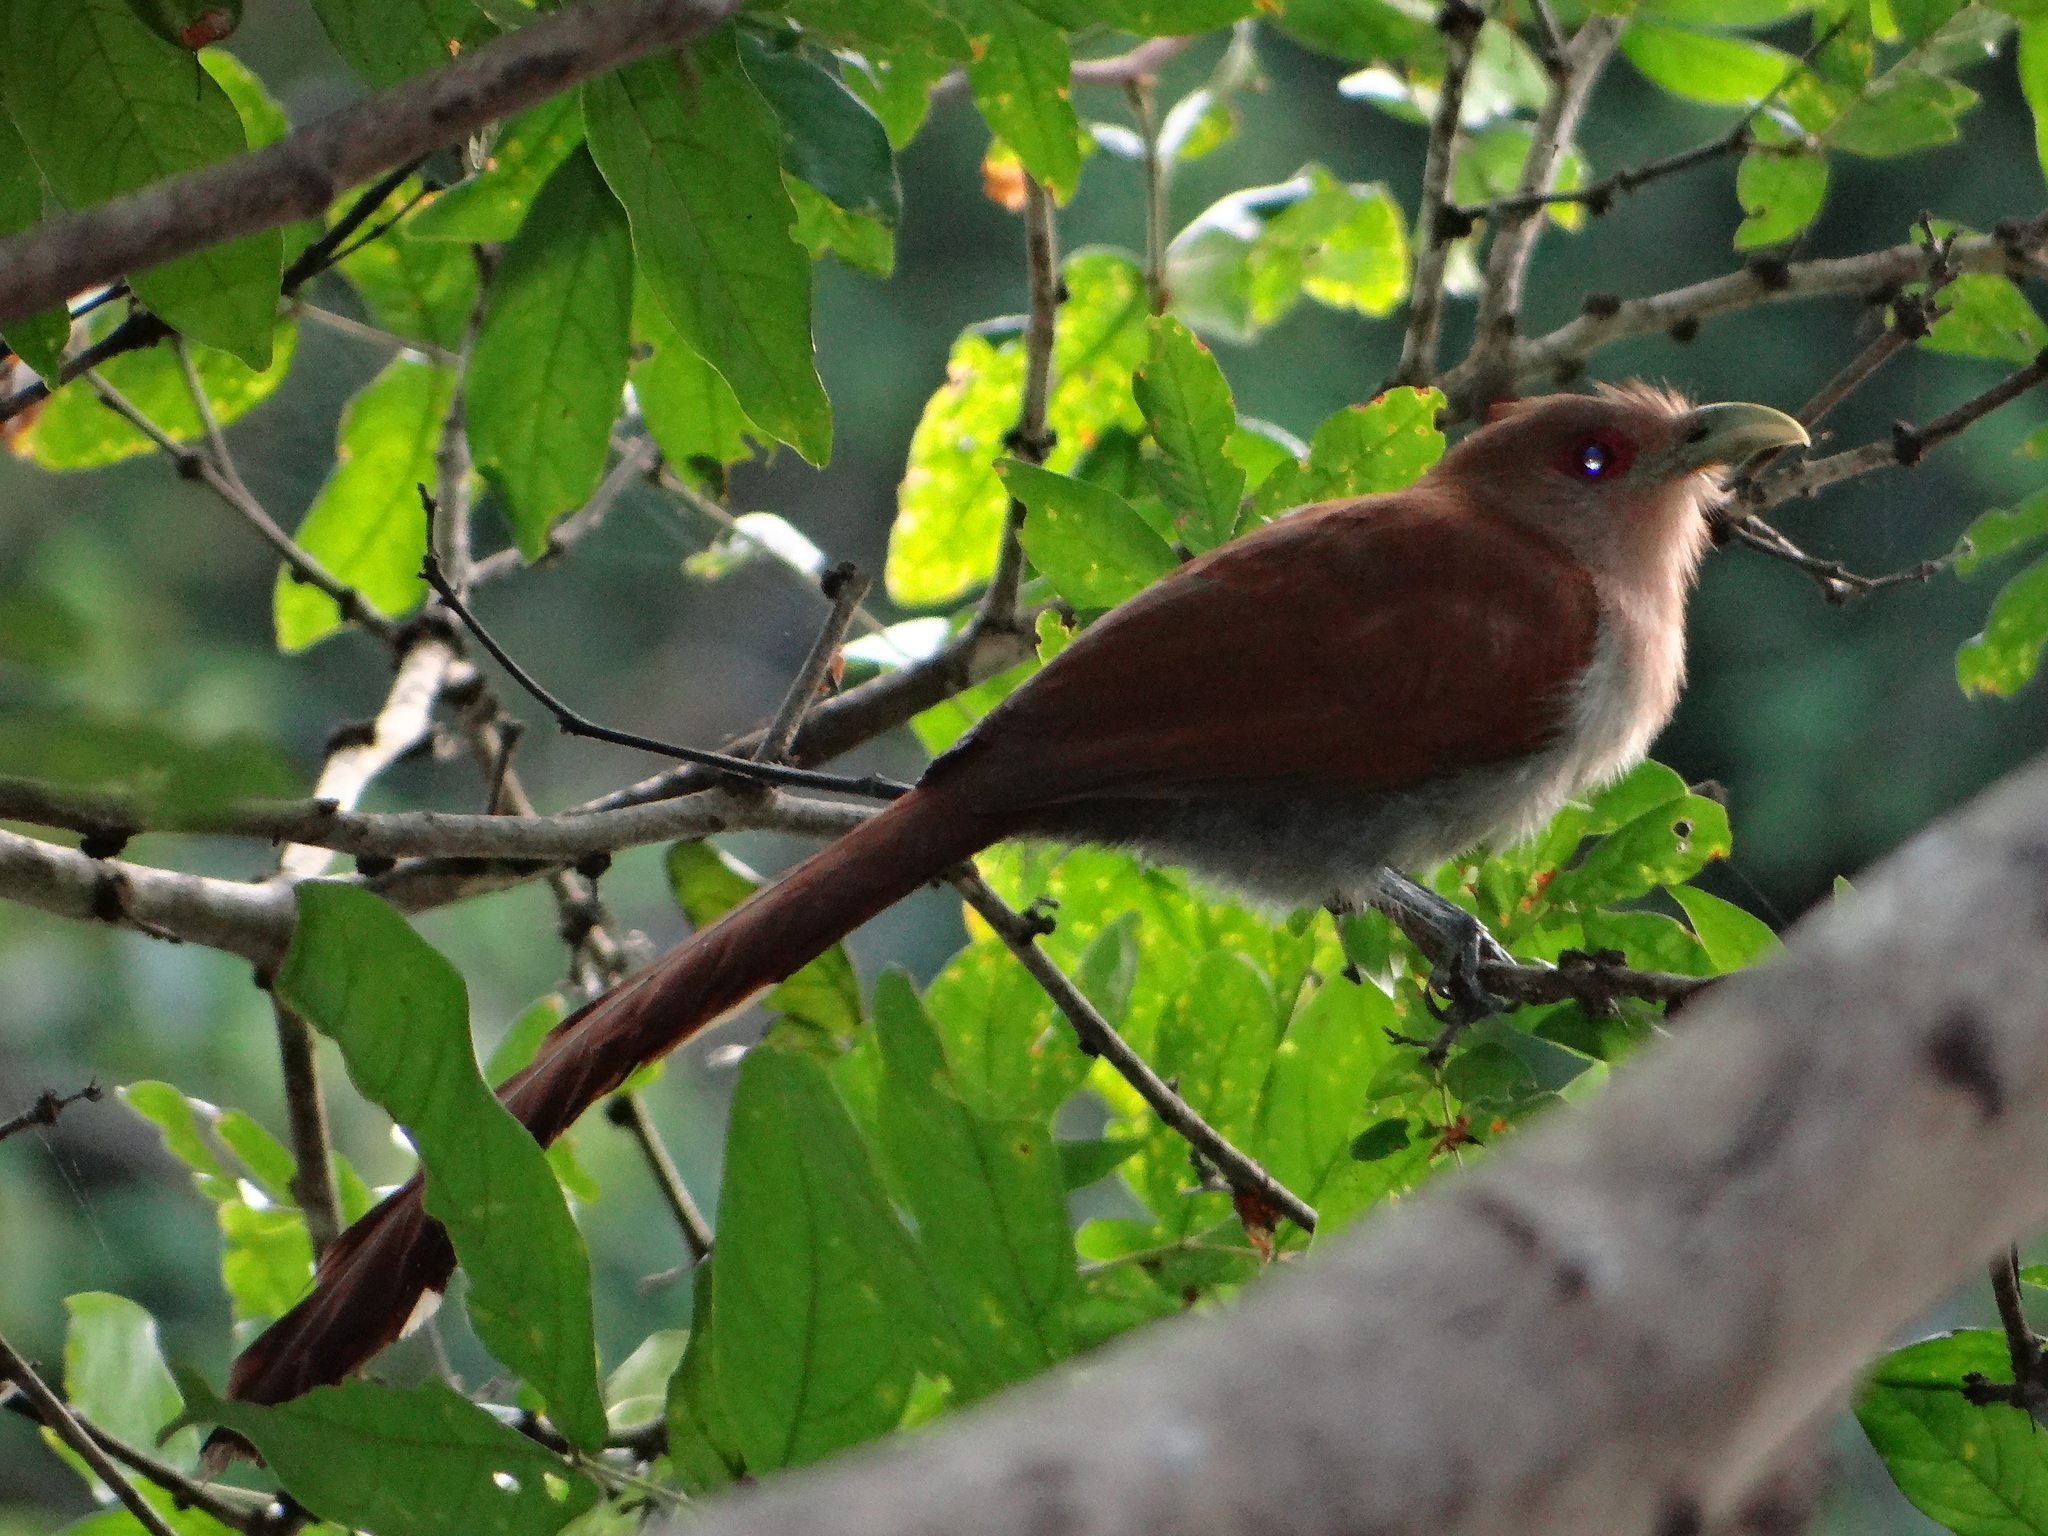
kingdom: Animalia
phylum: Chordata
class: Aves
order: Cuculiformes
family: Cuculidae
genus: Piaya
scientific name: Piaya cayana
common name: Squirrel cuckoo
